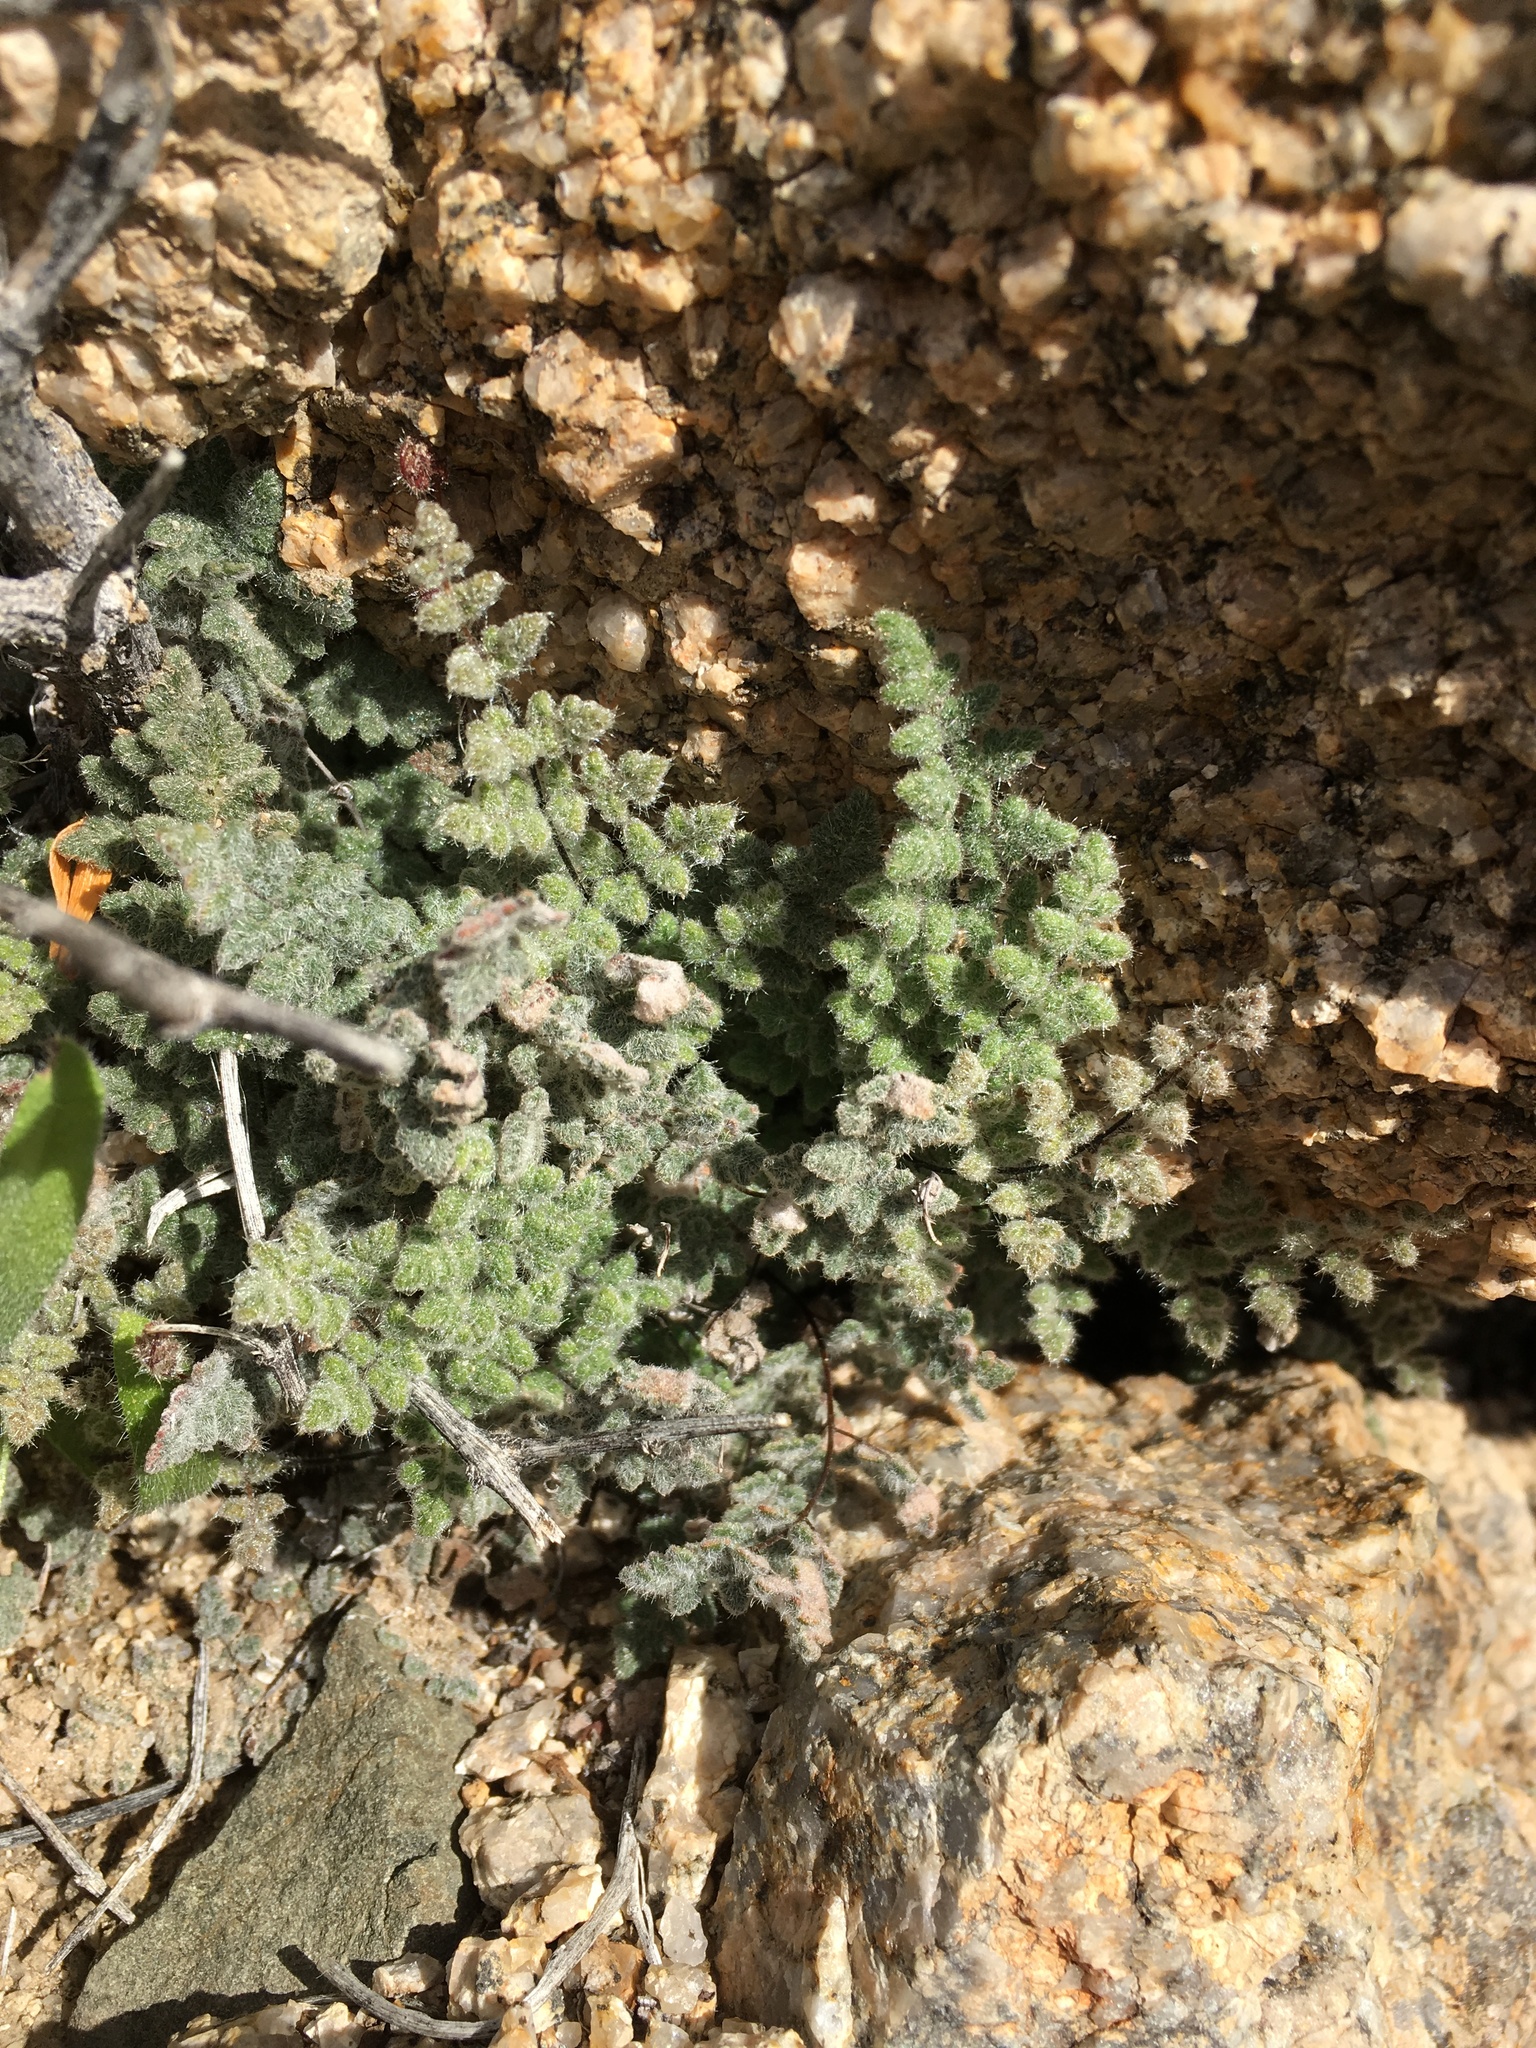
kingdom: Plantae
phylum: Tracheophyta
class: Polypodiopsida
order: Polypodiales
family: Pteridaceae
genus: Myriopteris
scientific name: Myriopteris parryi
